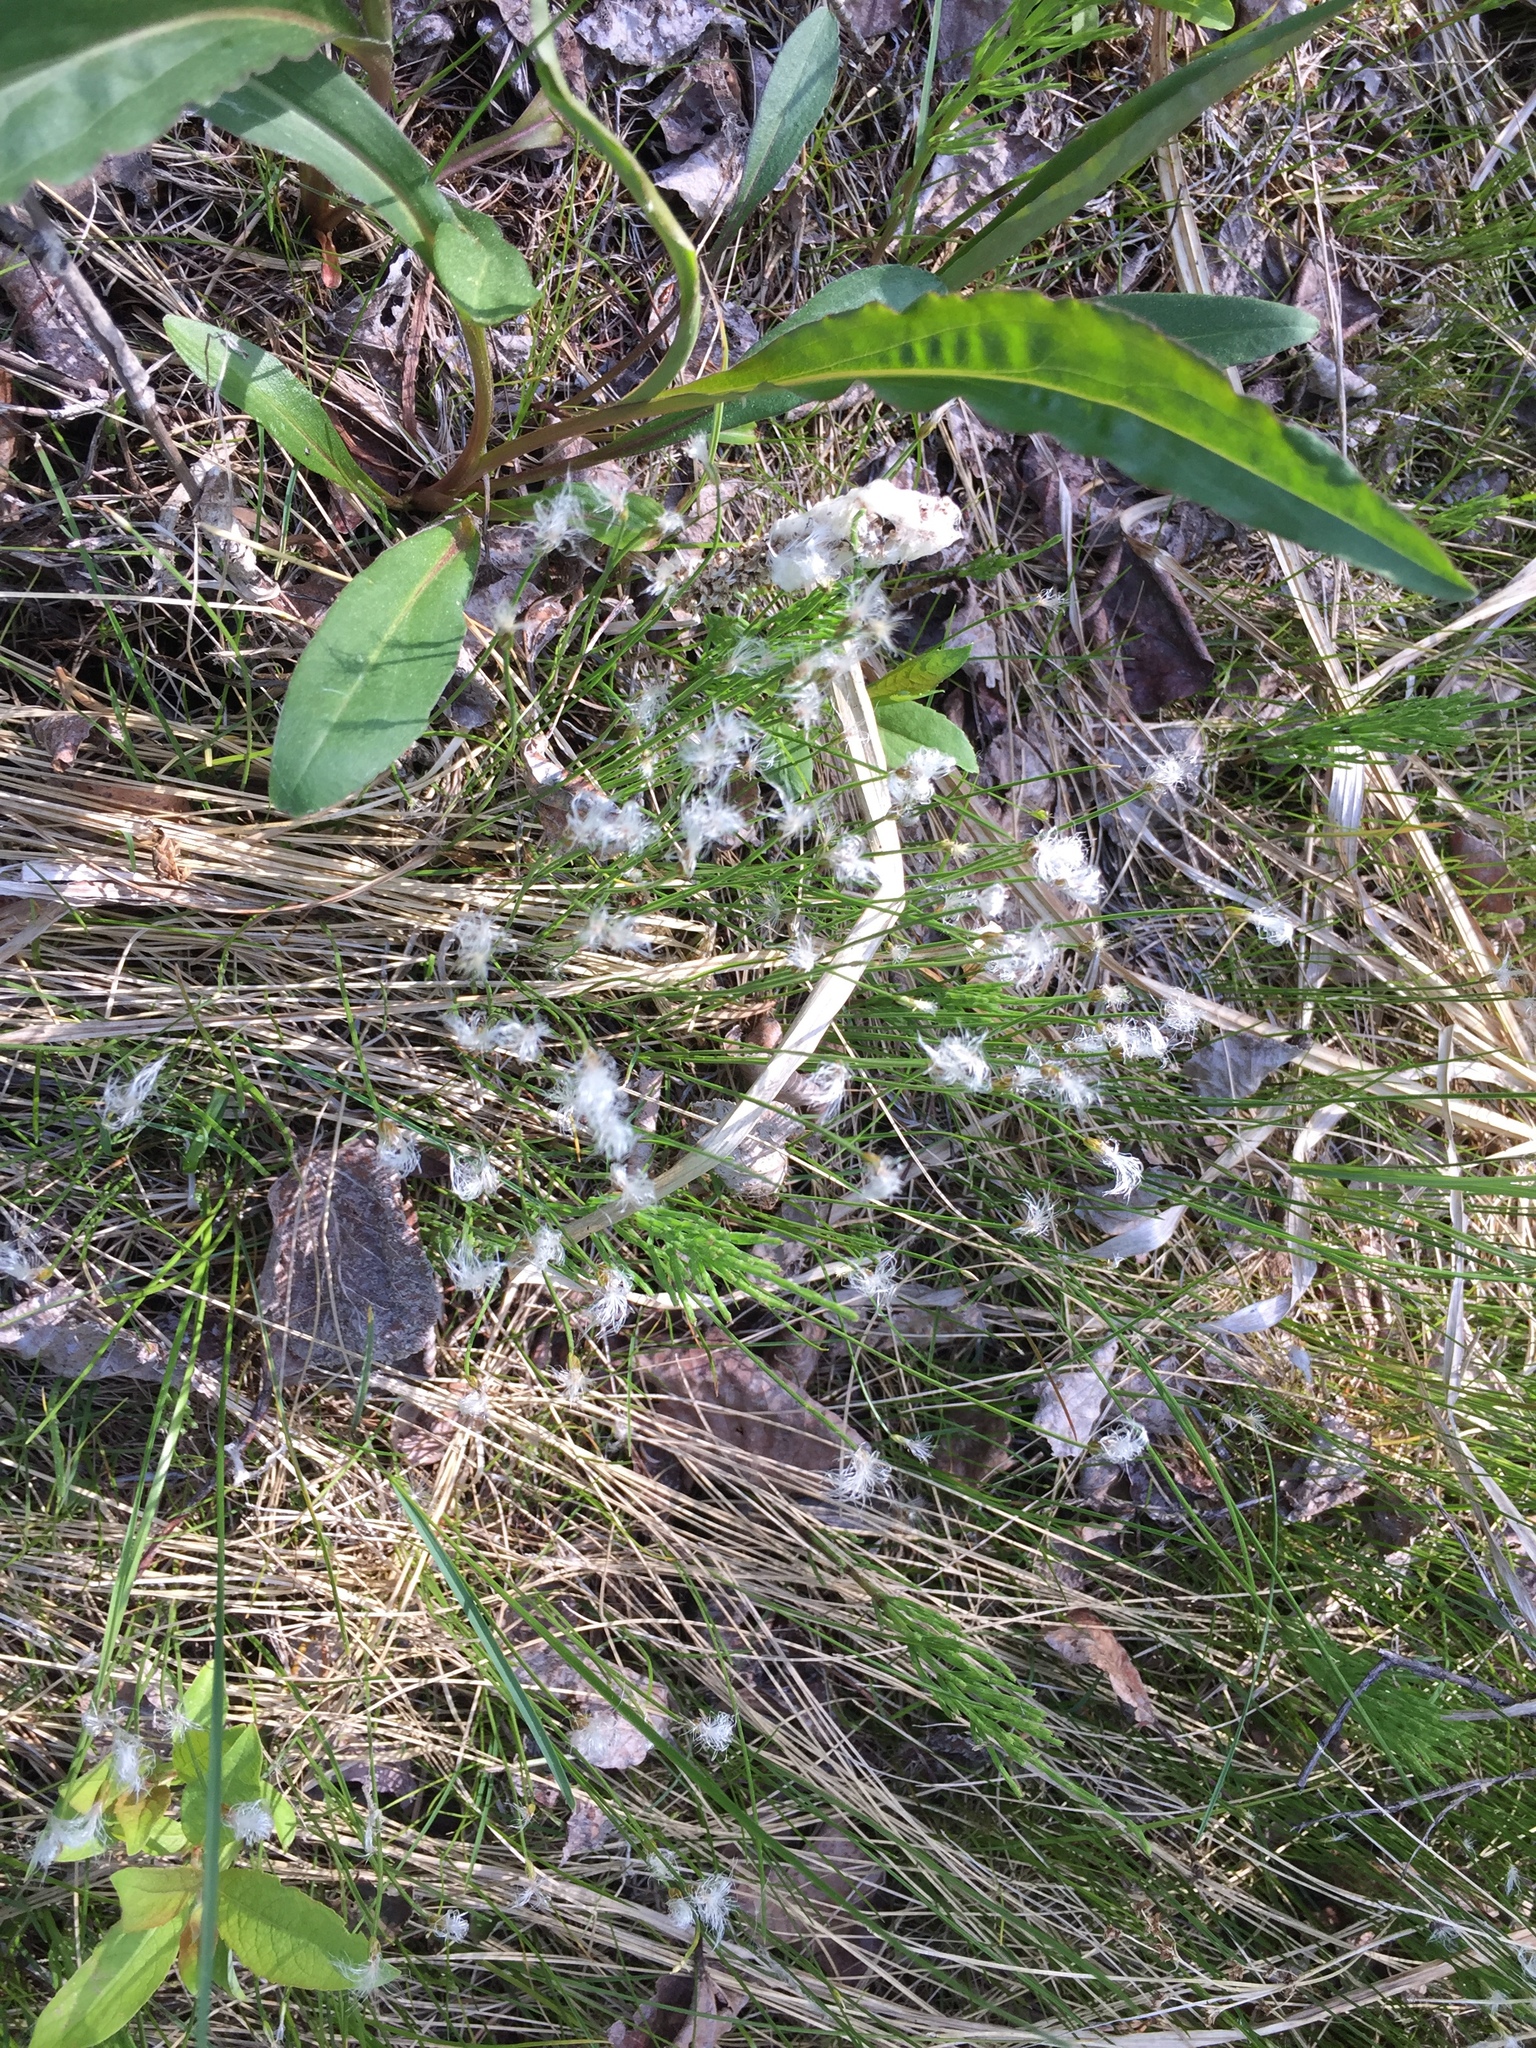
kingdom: Plantae
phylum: Tracheophyta
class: Liliopsida
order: Poales
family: Cyperaceae
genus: Trichophorum
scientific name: Trichophorum alpinum
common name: Alpine bulrush
